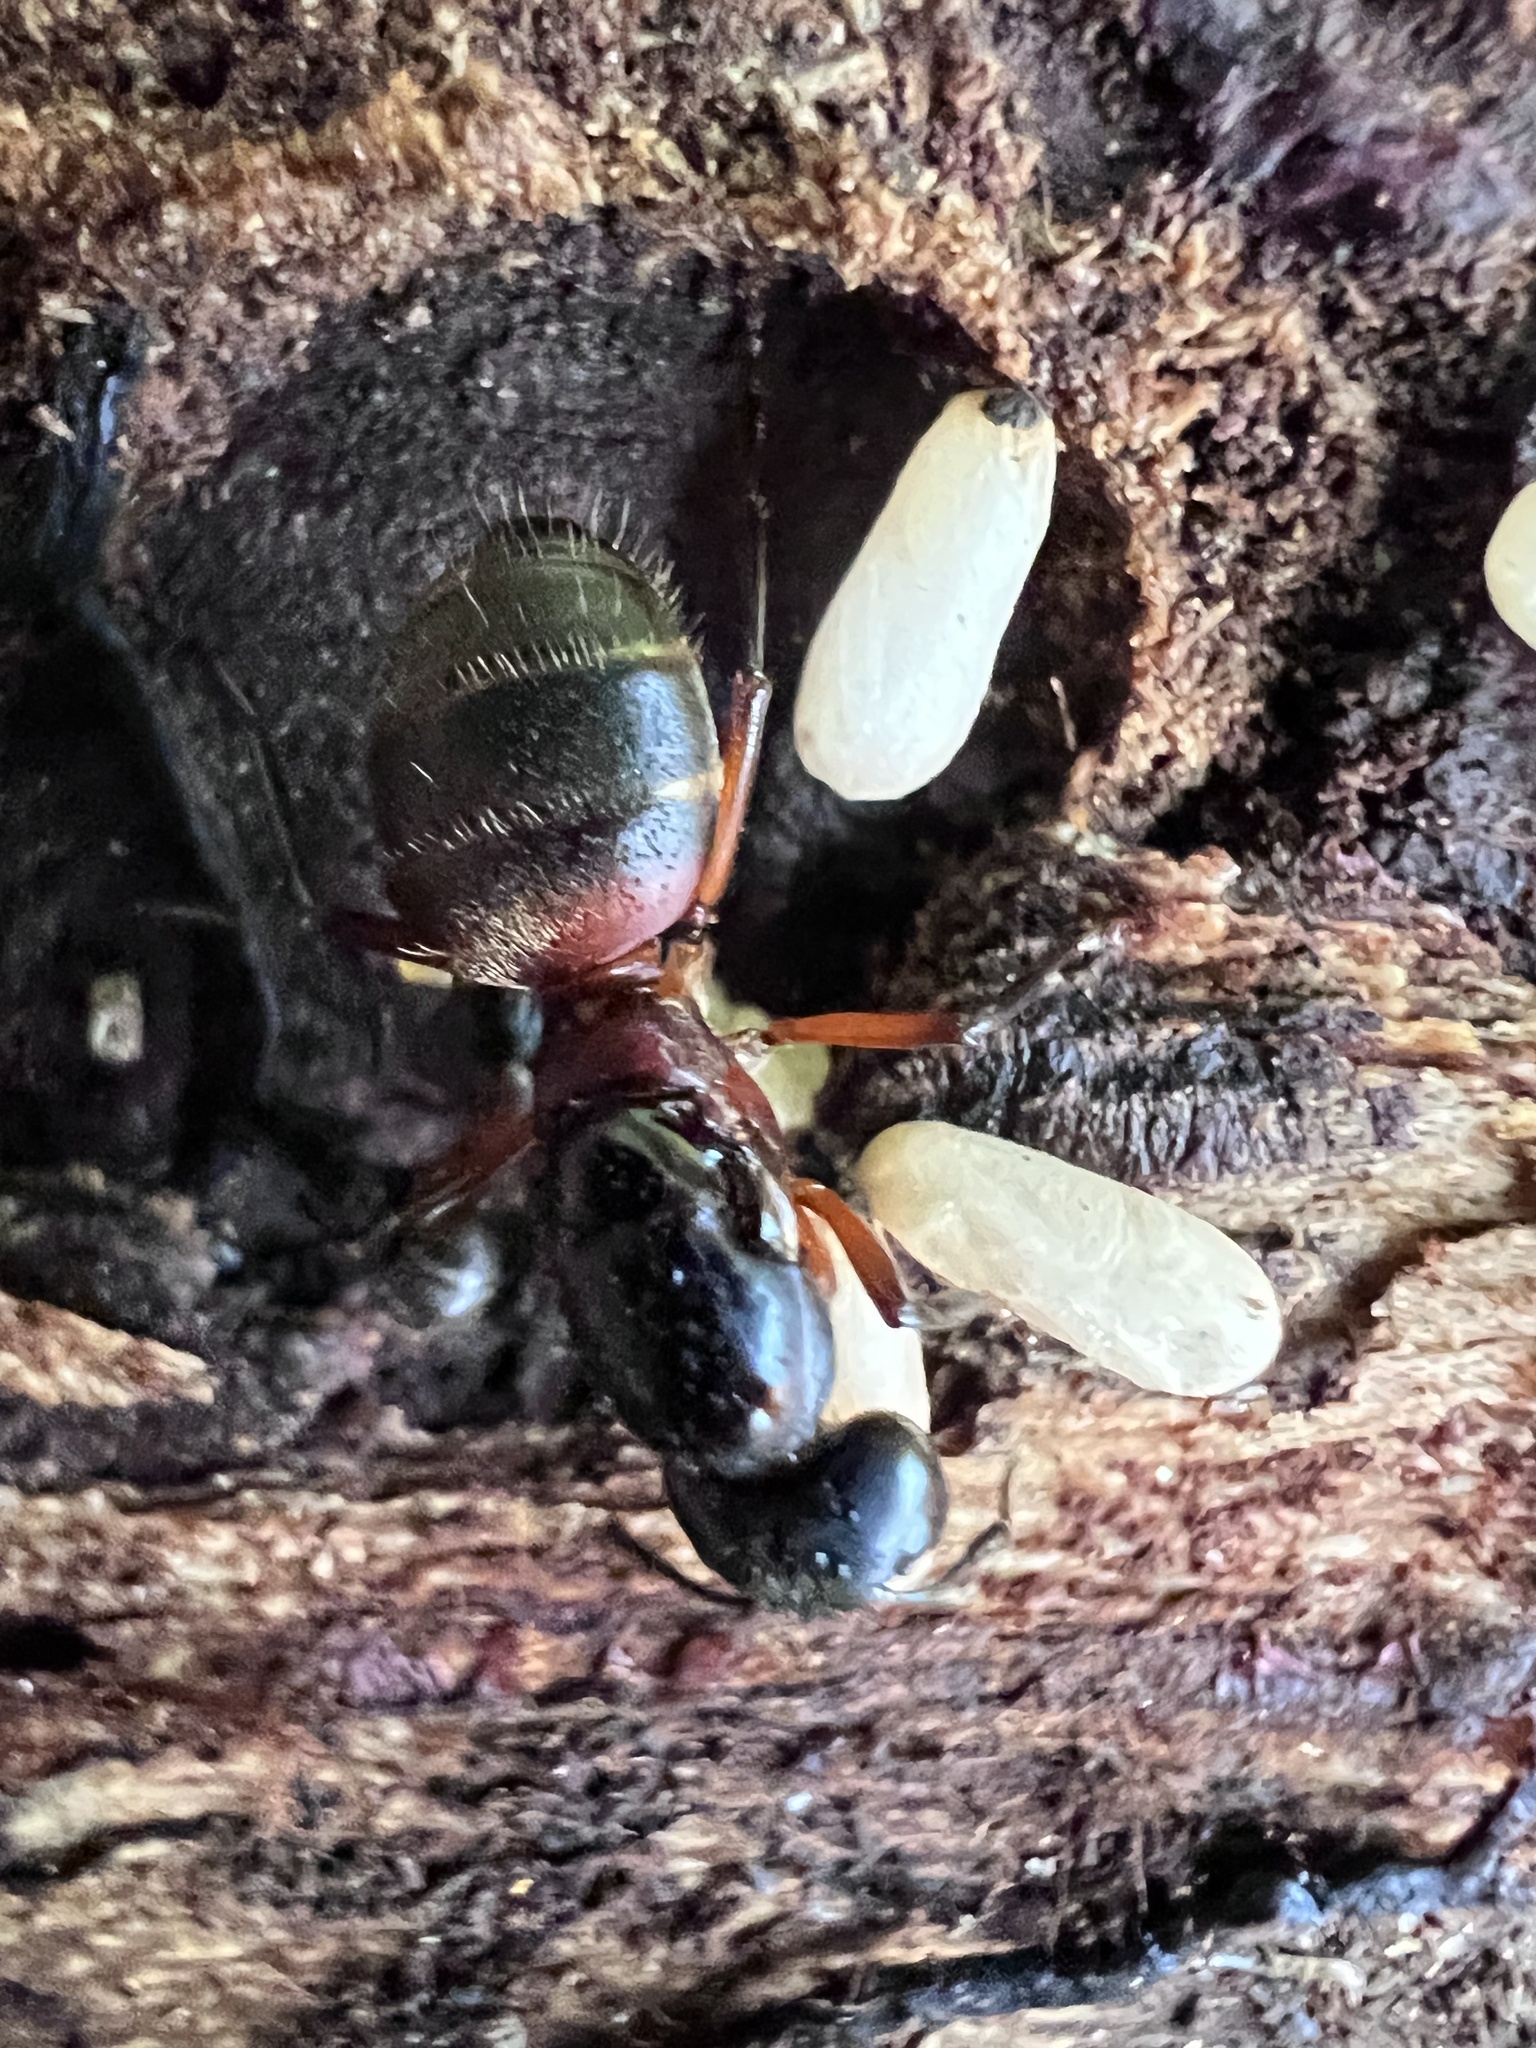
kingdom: Animalia
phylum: Arthropoda
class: Insecta
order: Hymenoptera
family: Formicidae
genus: Camponotus
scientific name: Camponotus chromaiodes
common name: Red carpenter ant
